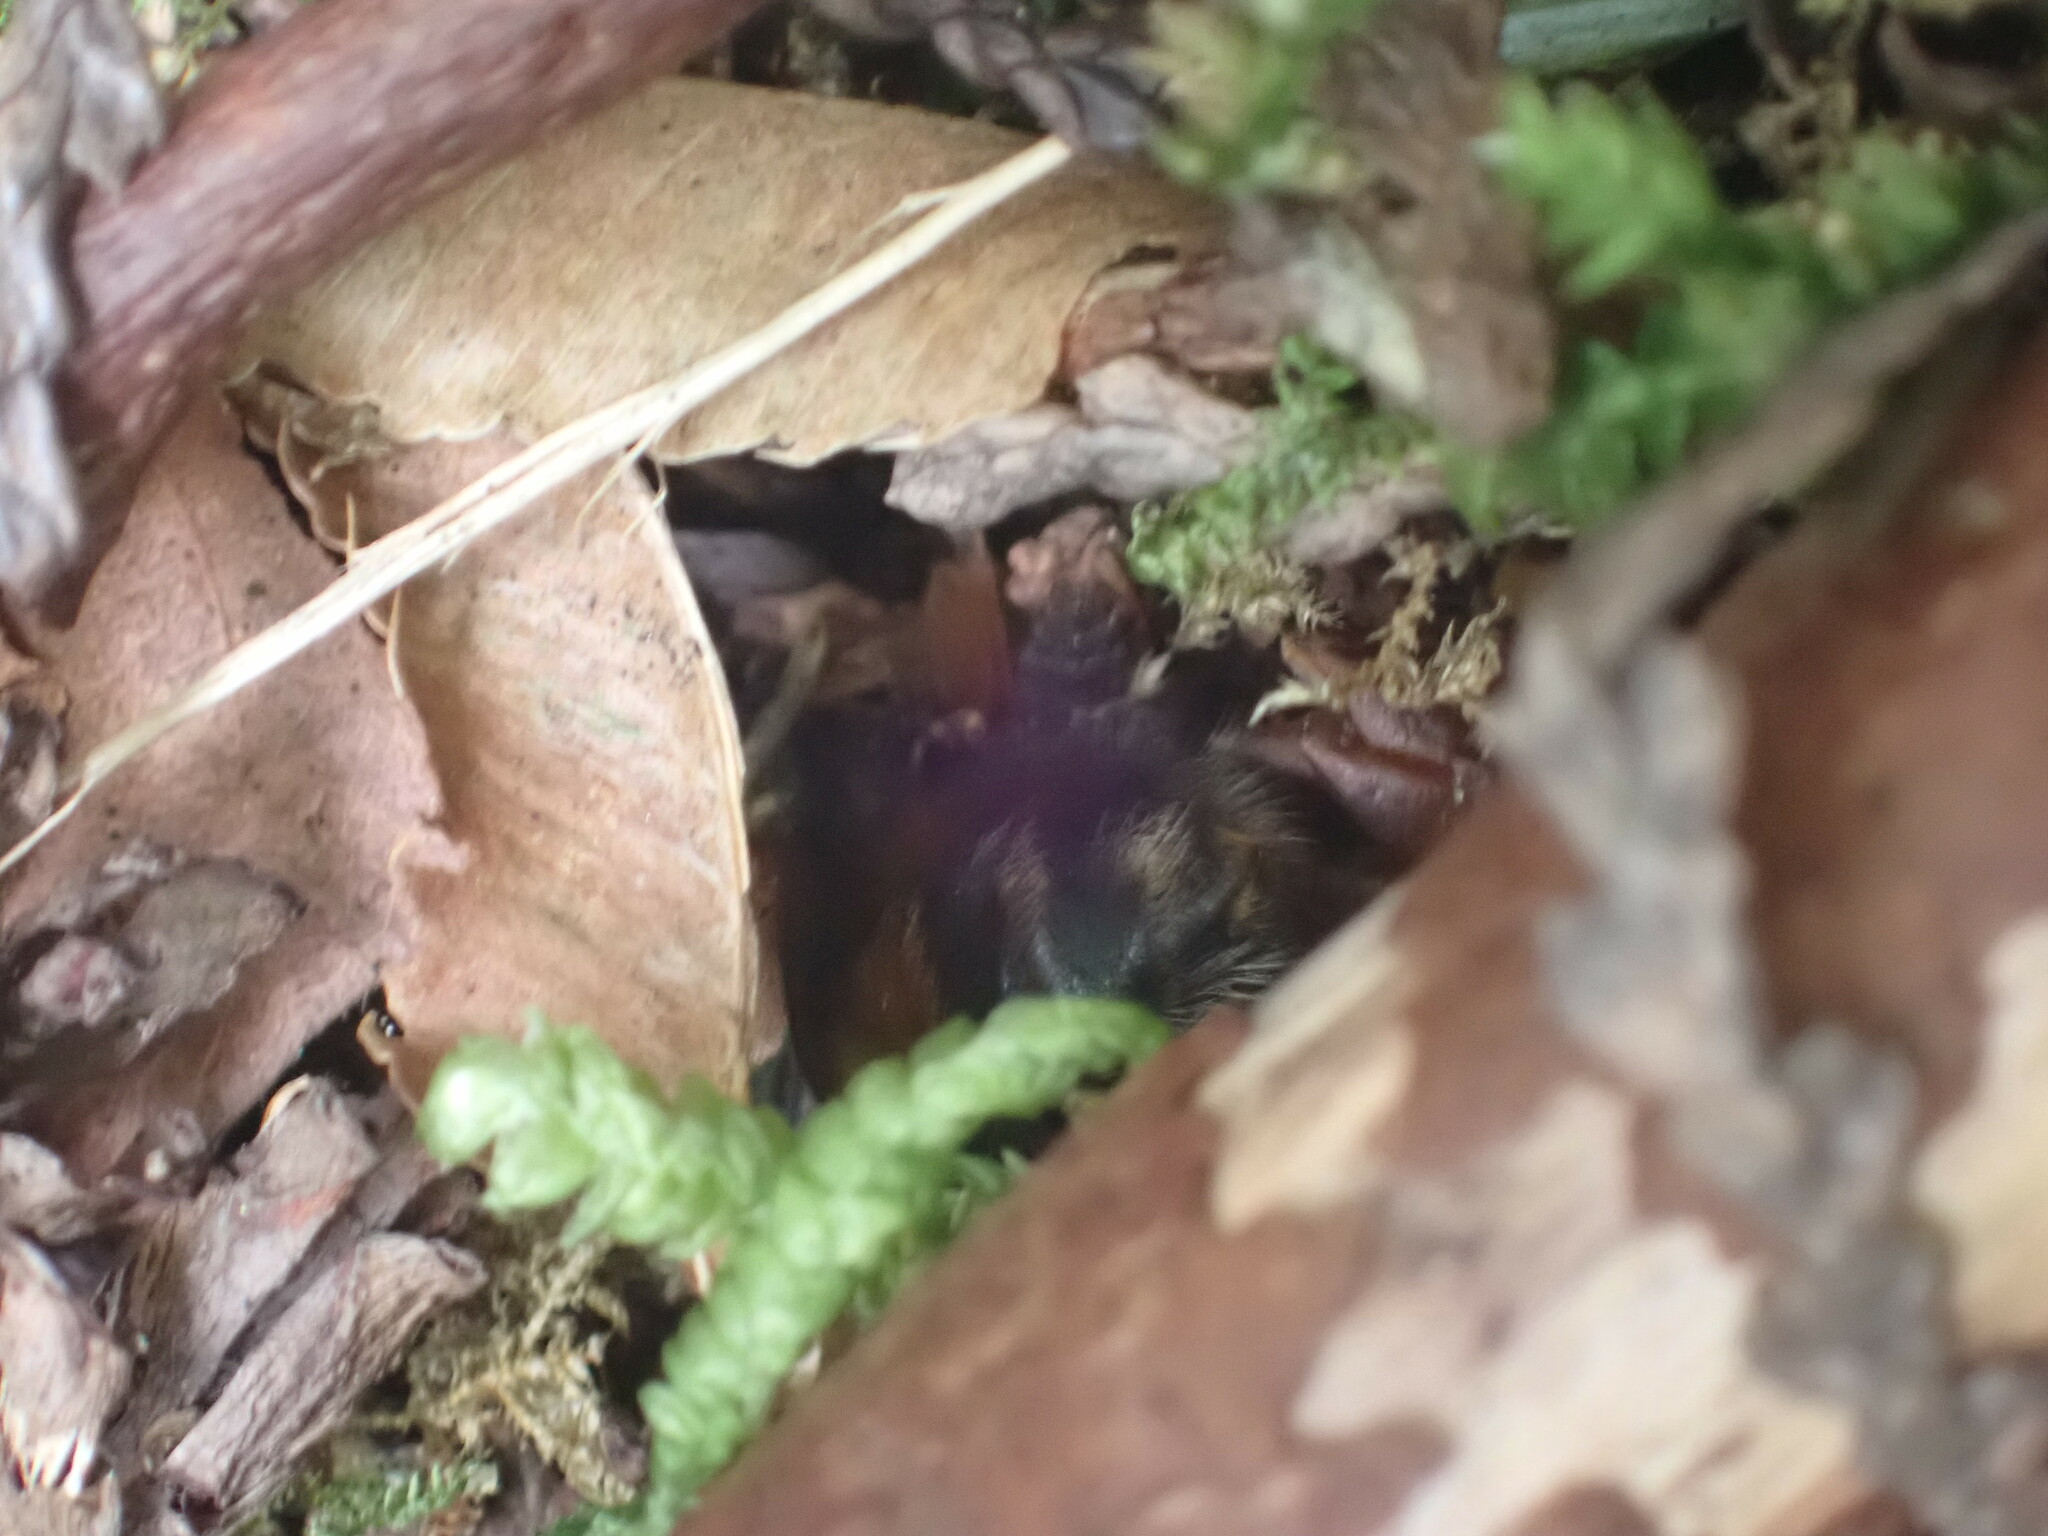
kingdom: Animalia
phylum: Arthropoda
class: Insecta
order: Hymenoptera
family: Apidae
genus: Bombus
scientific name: Bombus flavifrons
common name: Yellow head bumble bee
